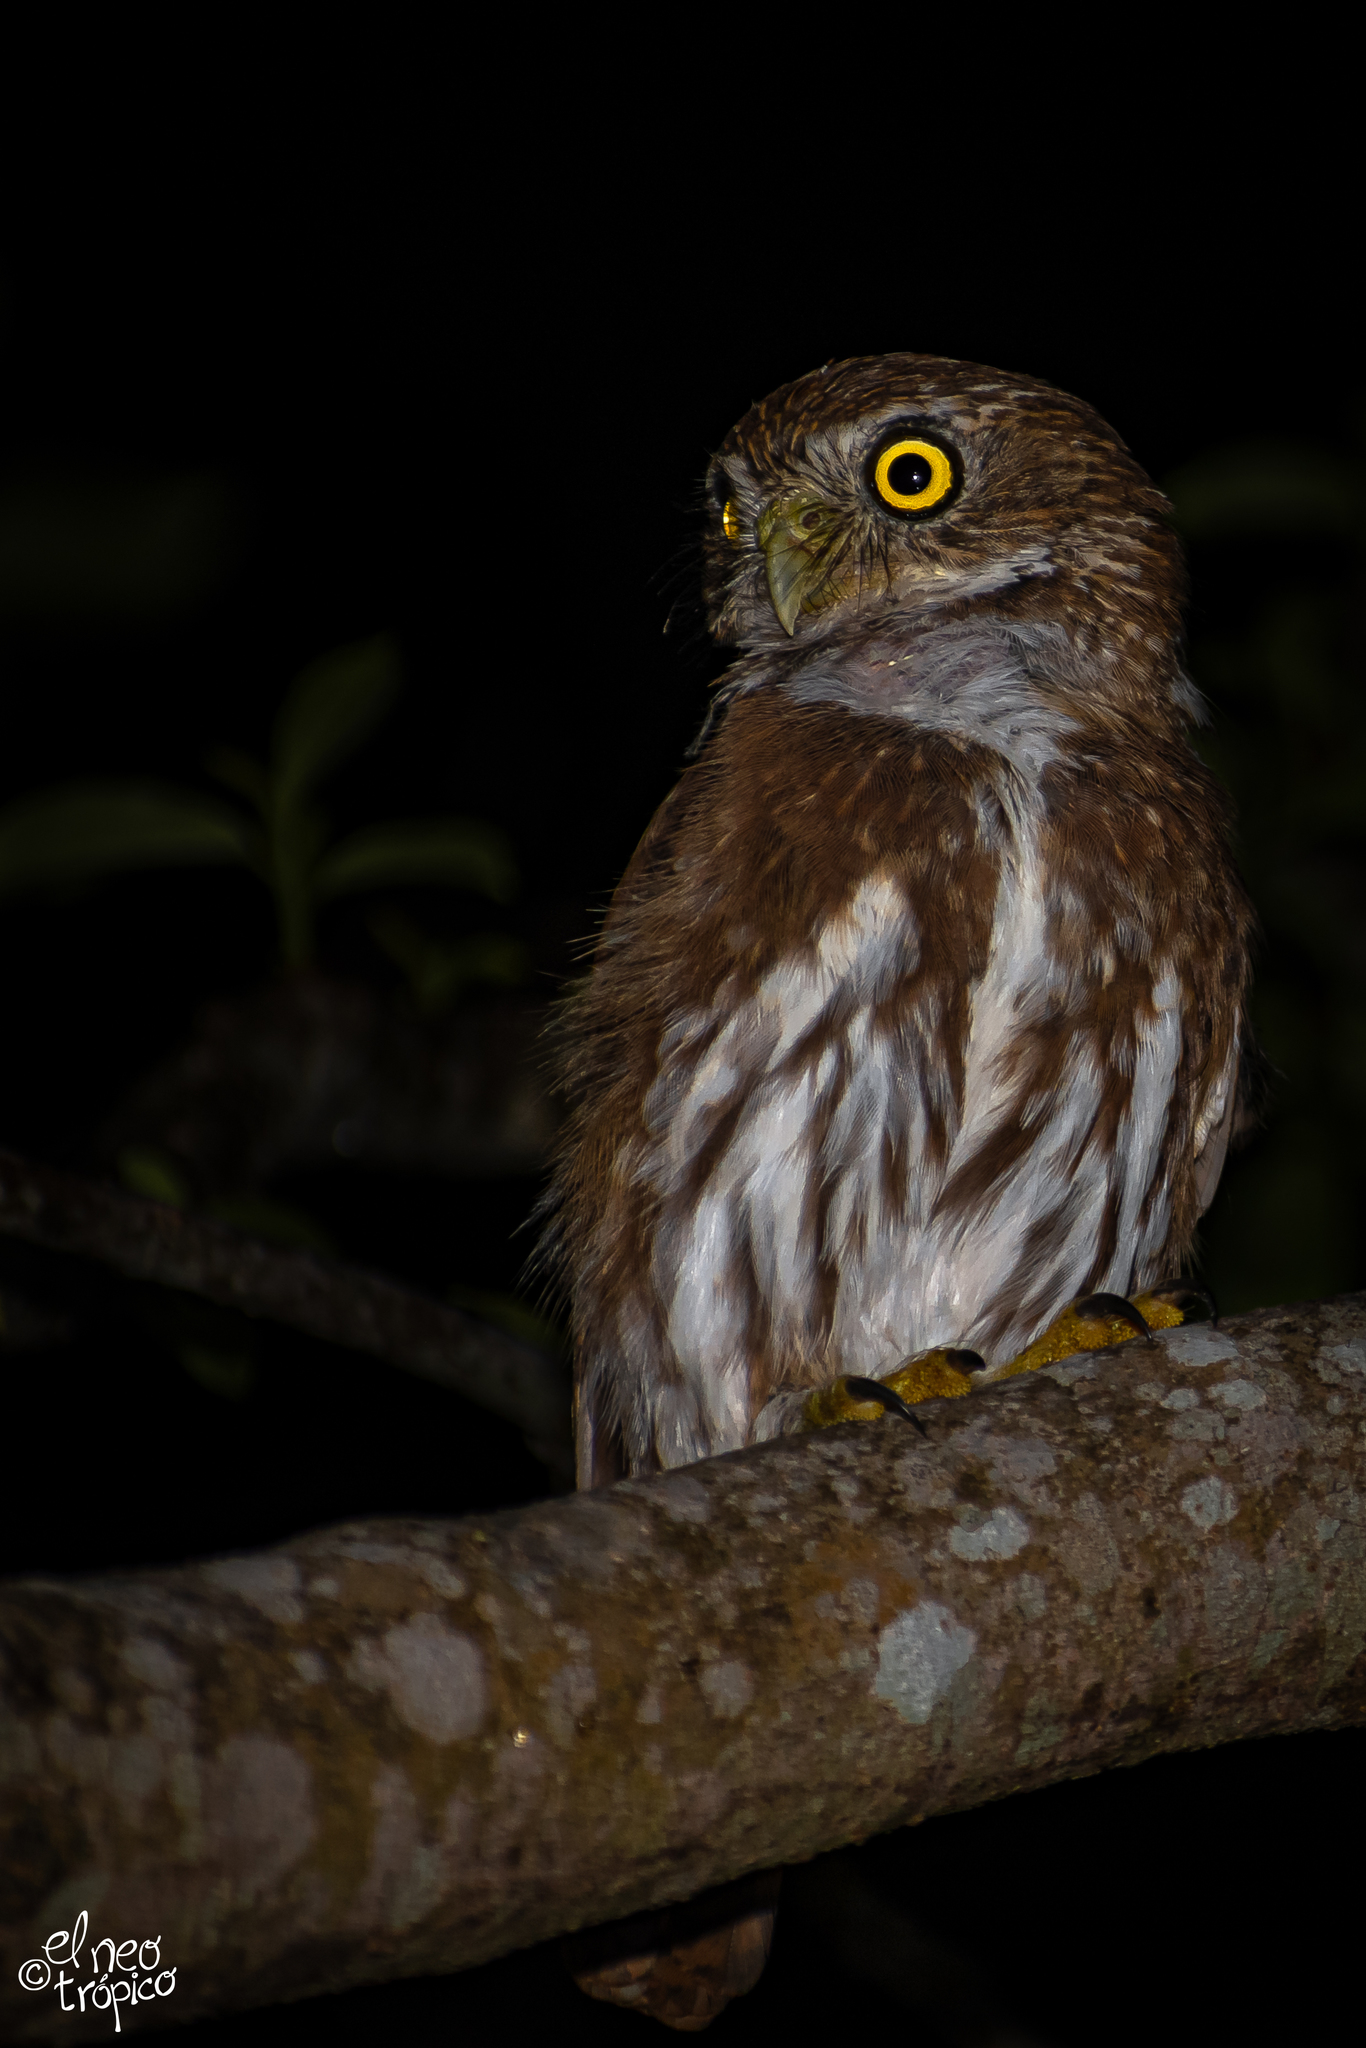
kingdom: Animalia
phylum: Chordata
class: Aves
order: Strigiformes
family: Strigidae
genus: Glaucidium
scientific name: Glaucidium brasilianum
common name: Ferruginous pygmy-owl
